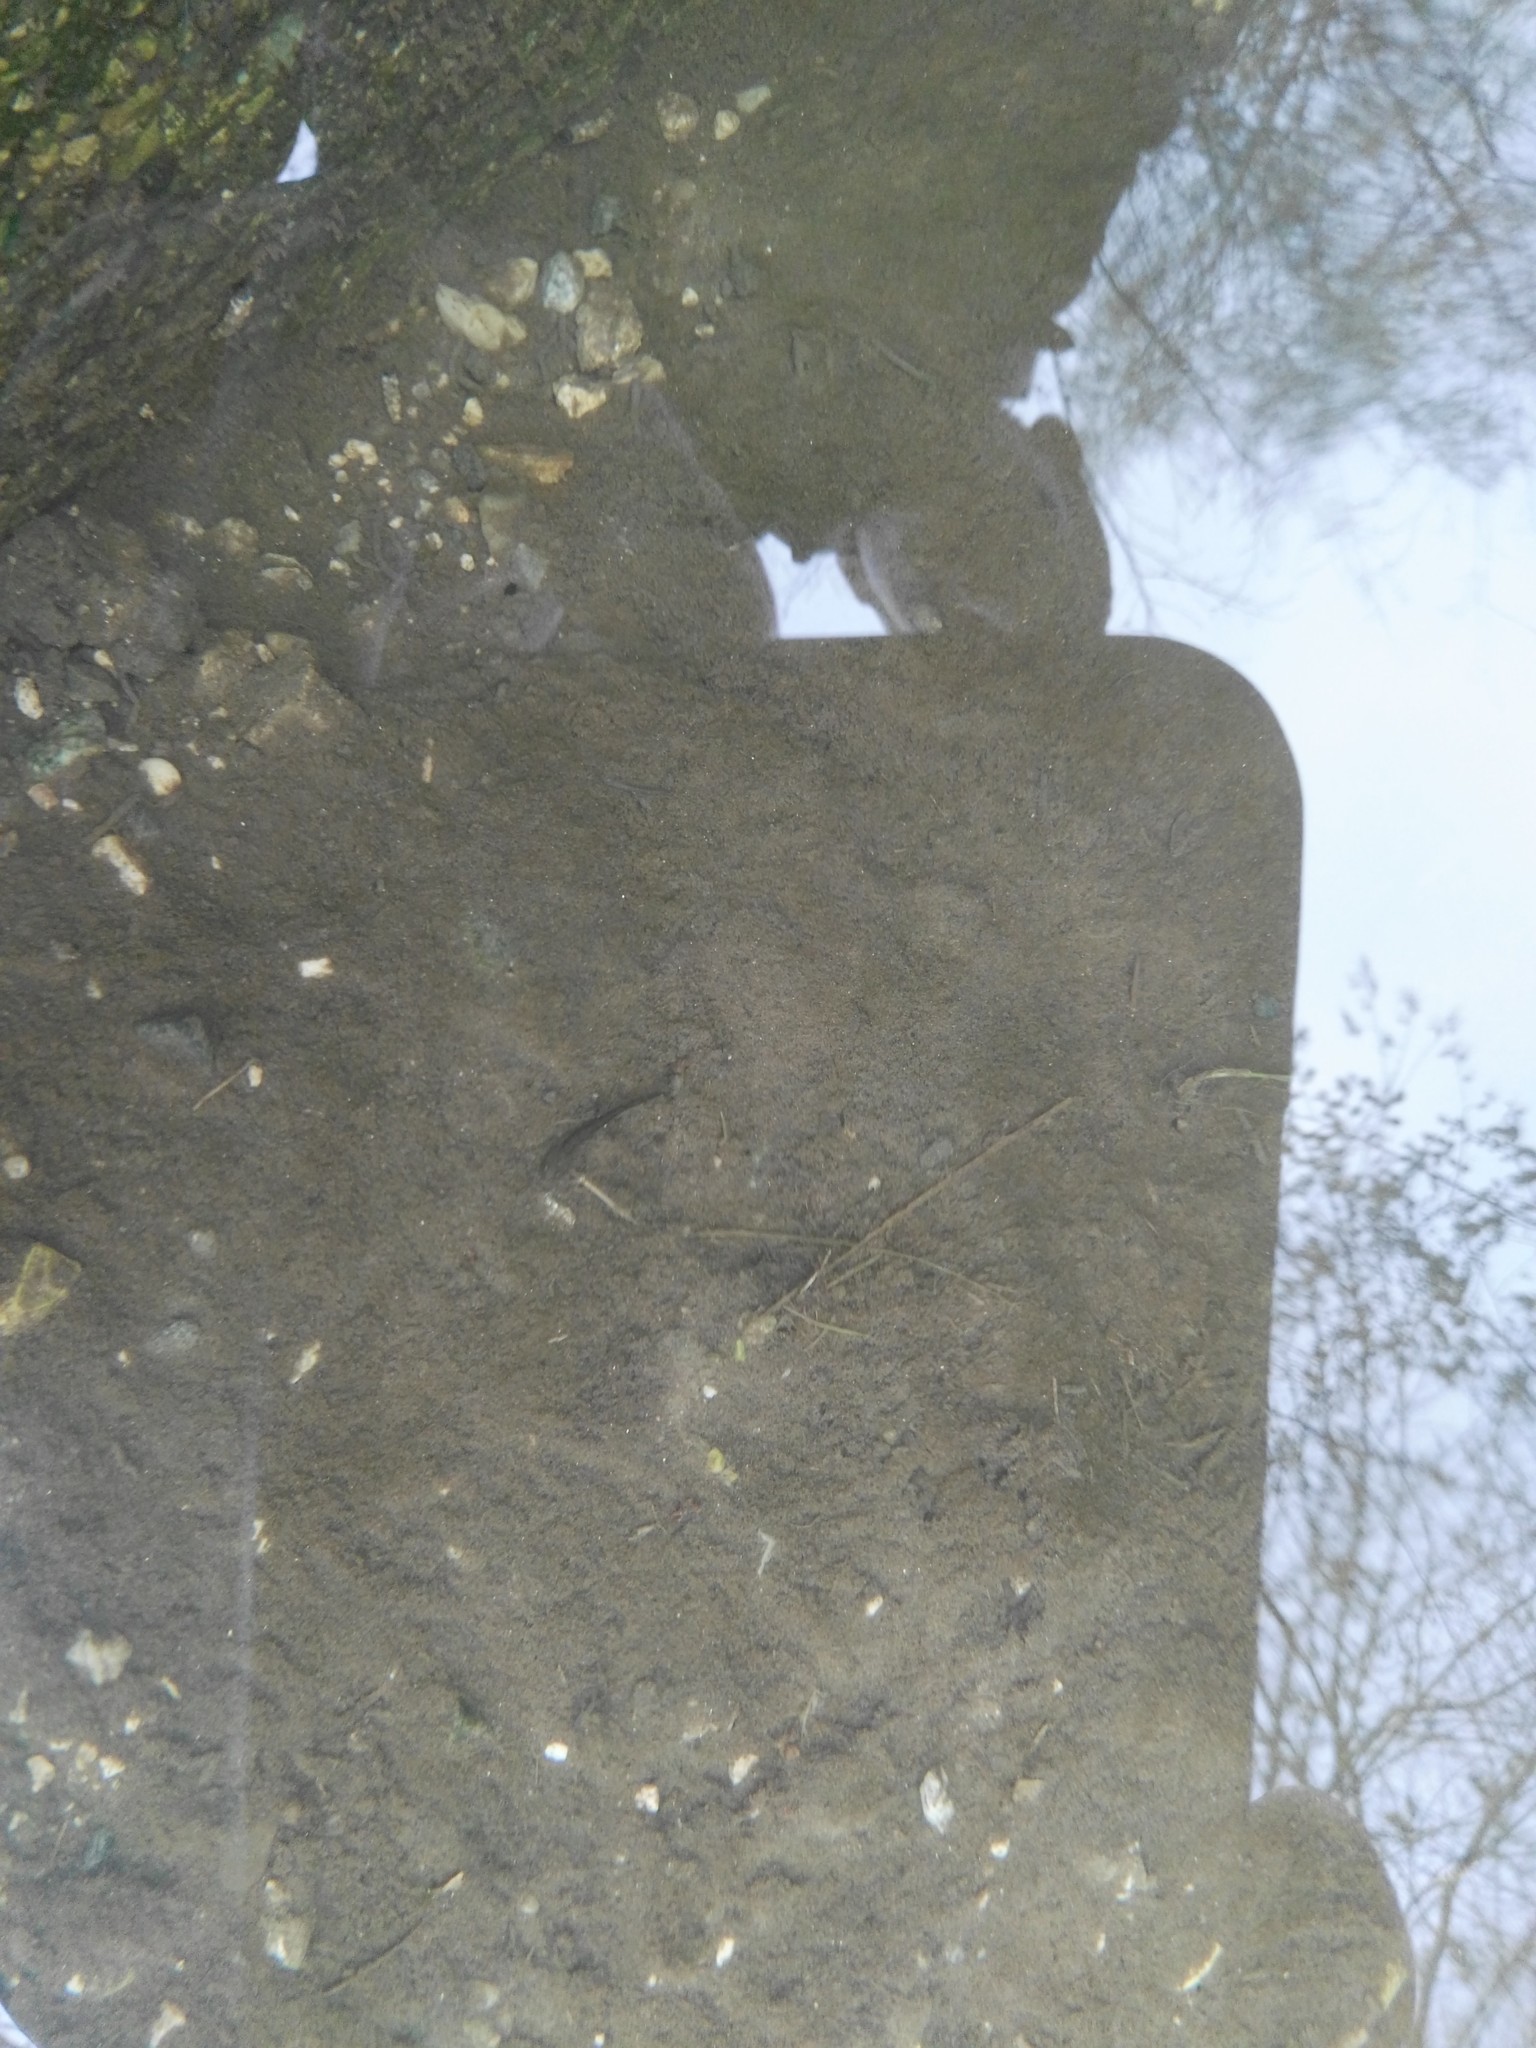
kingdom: Animalia
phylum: Chordata
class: Amphibia
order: Caudata
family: Salamandridae
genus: Salamandra
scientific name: Salamandra salamandra
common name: Fire salamander
